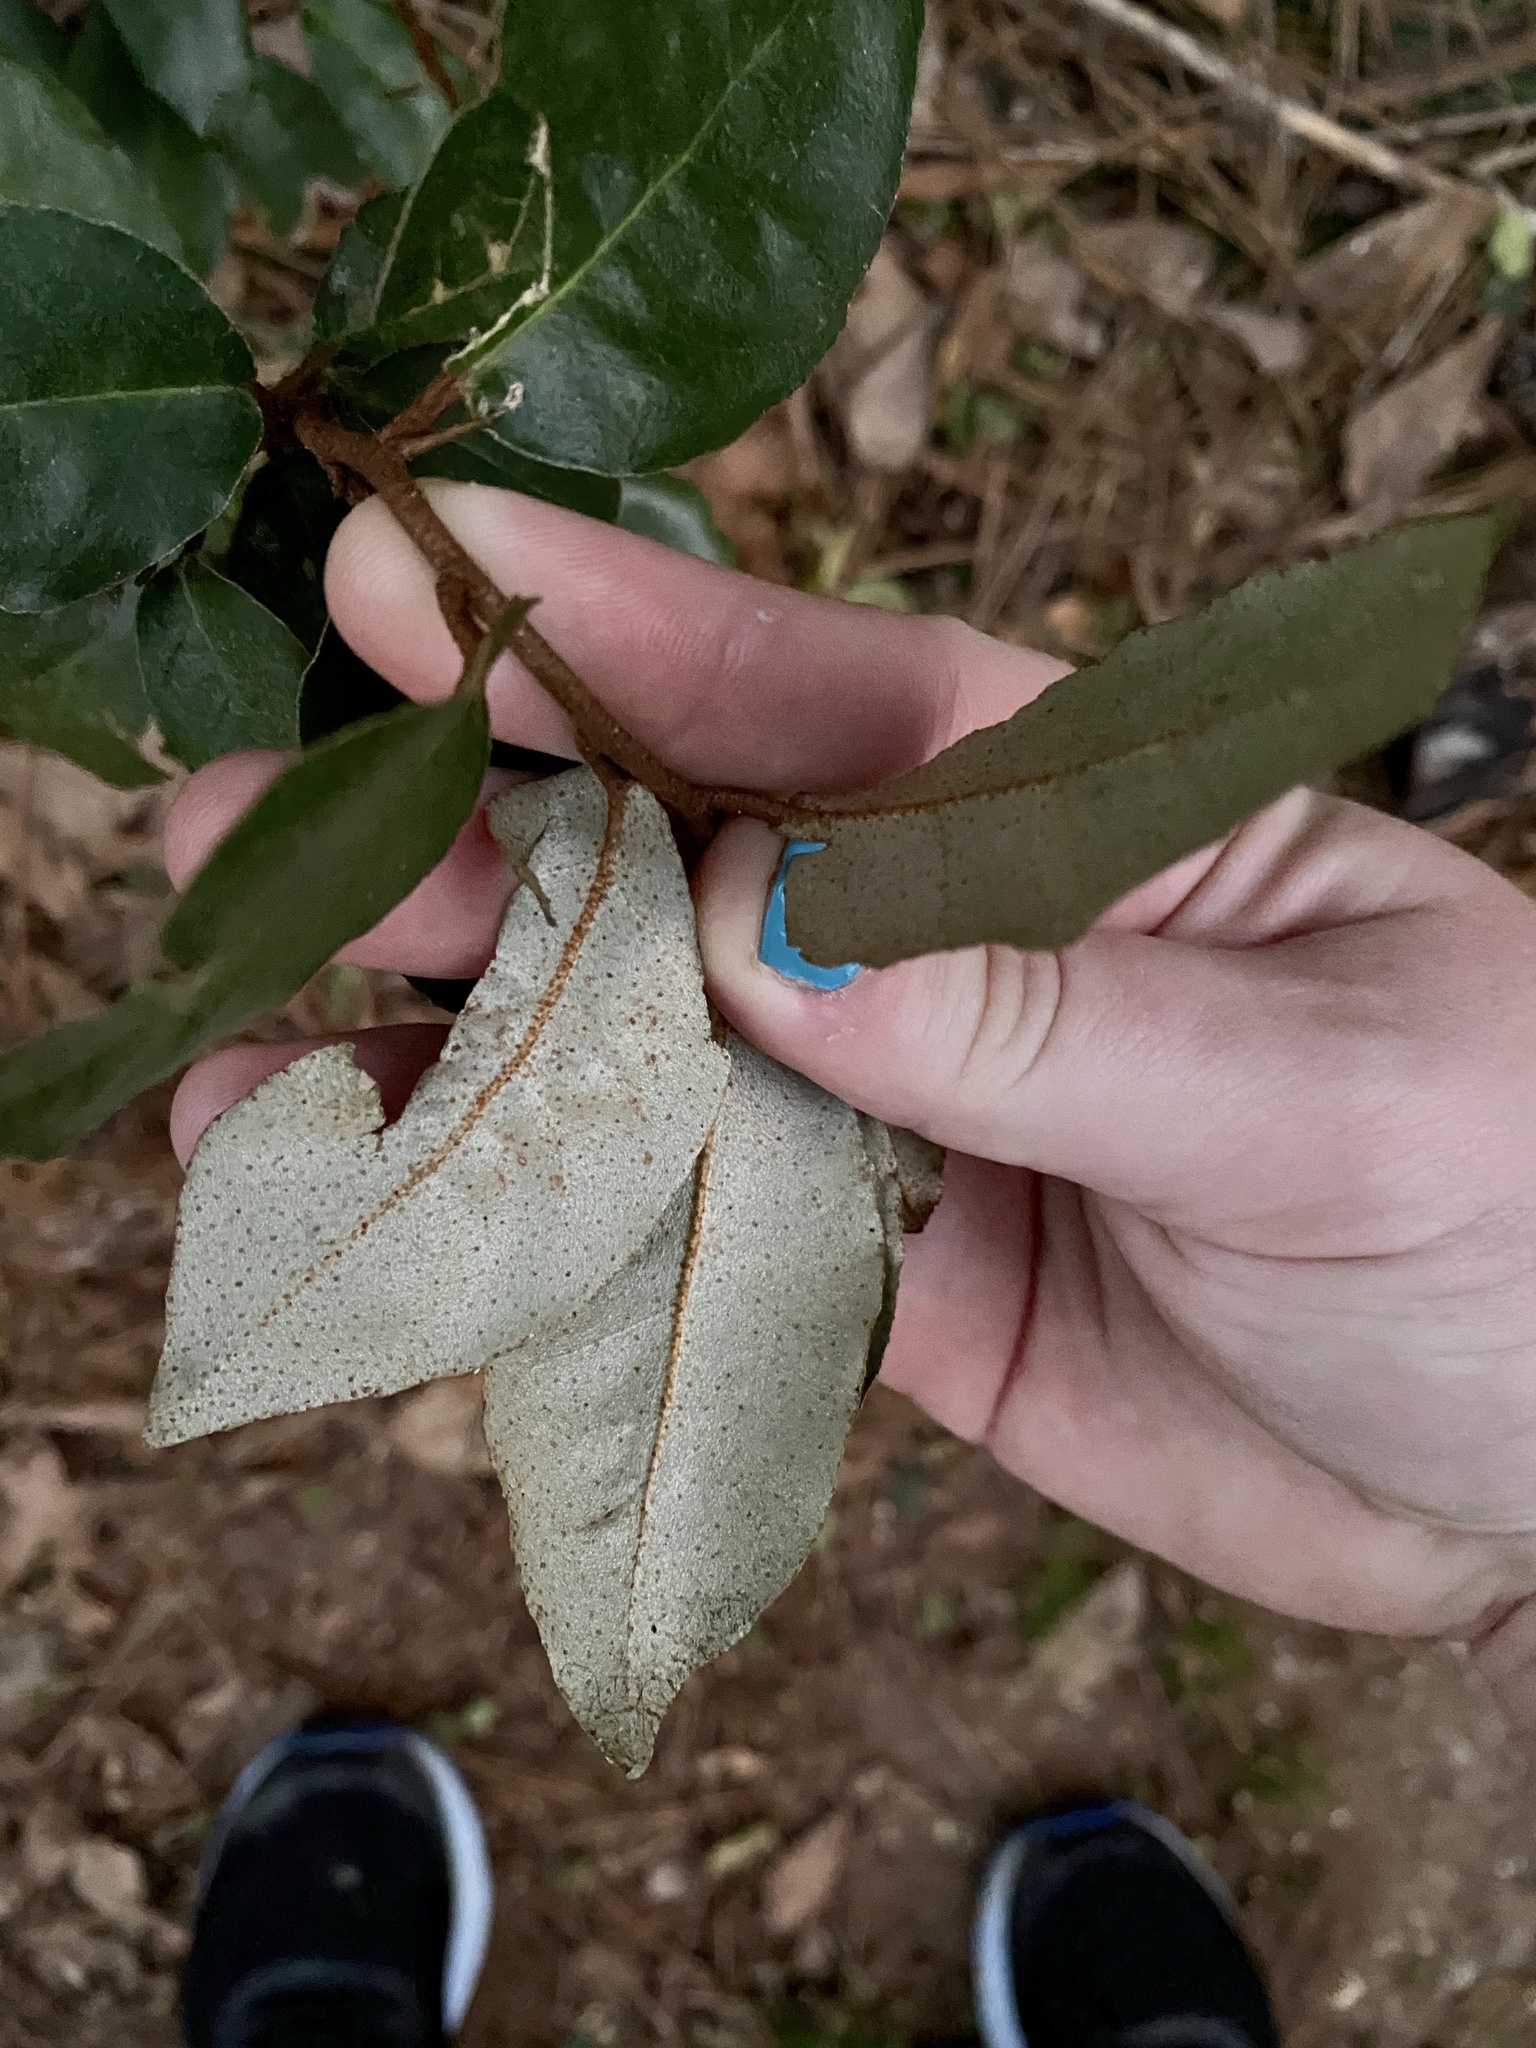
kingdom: Plantae
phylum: Tracheophyta
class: Magnoliopsida
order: Rosales
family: Elaeagnaceae
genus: Elaeagnus
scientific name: Elaeagnus pungens
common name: Spiny oleaster
